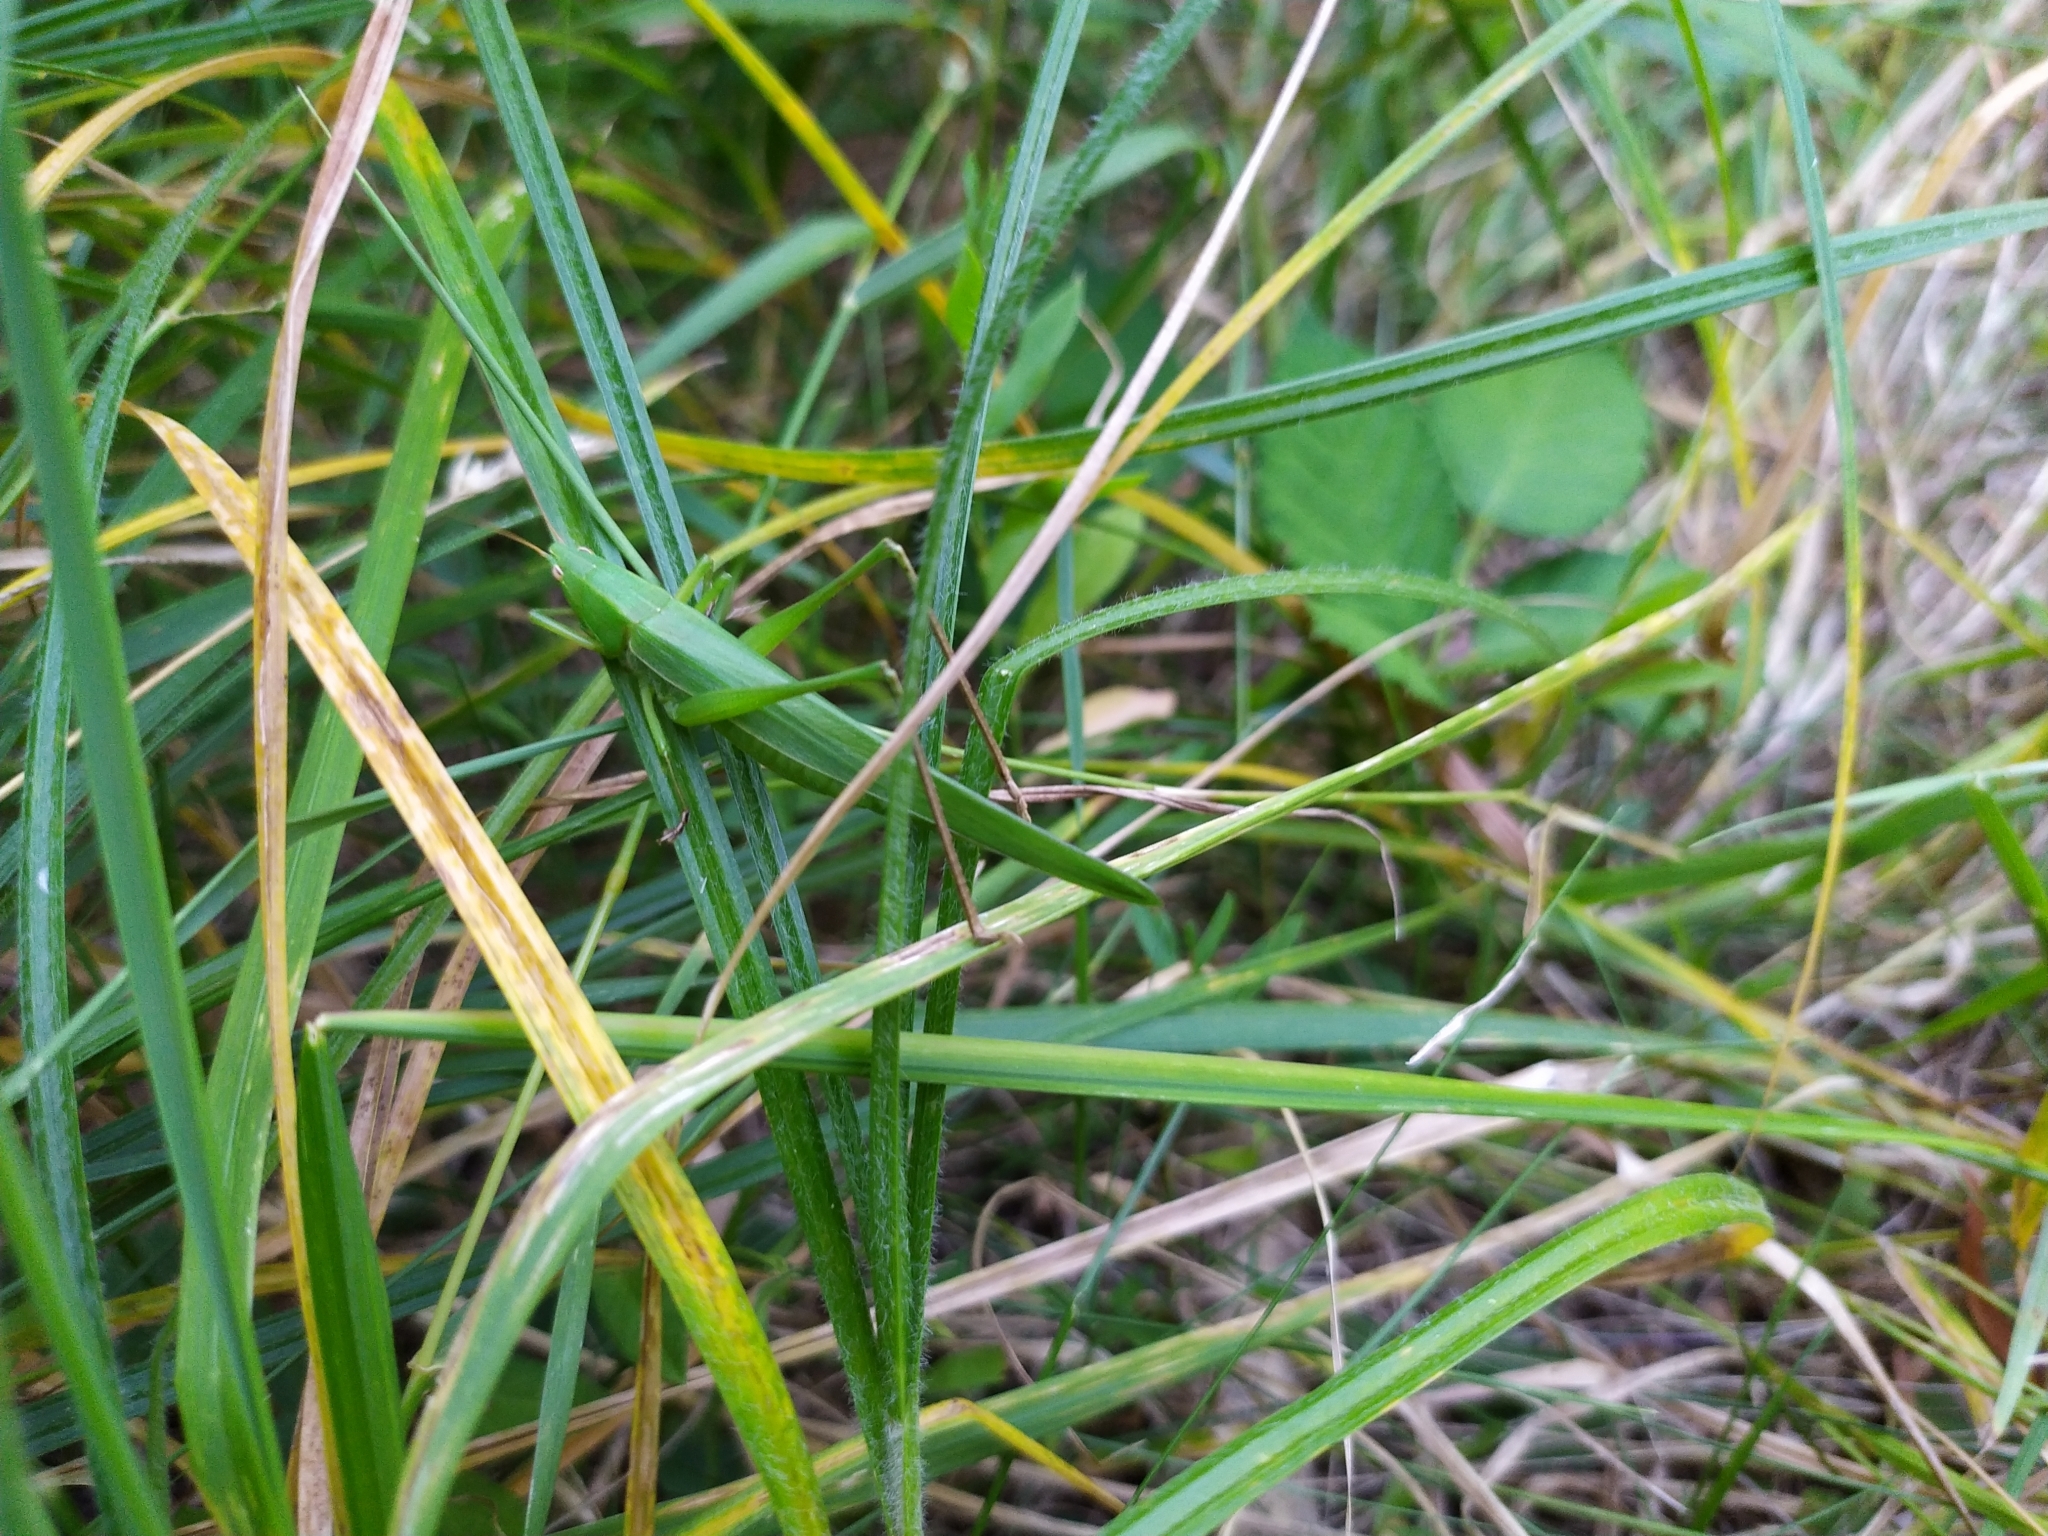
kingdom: Animalia
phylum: Arthropoda
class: Insecta
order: Orthoptera
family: Tettigoniidae
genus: Ruspolia
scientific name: Ruspolia nitidula
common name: Large conehead
